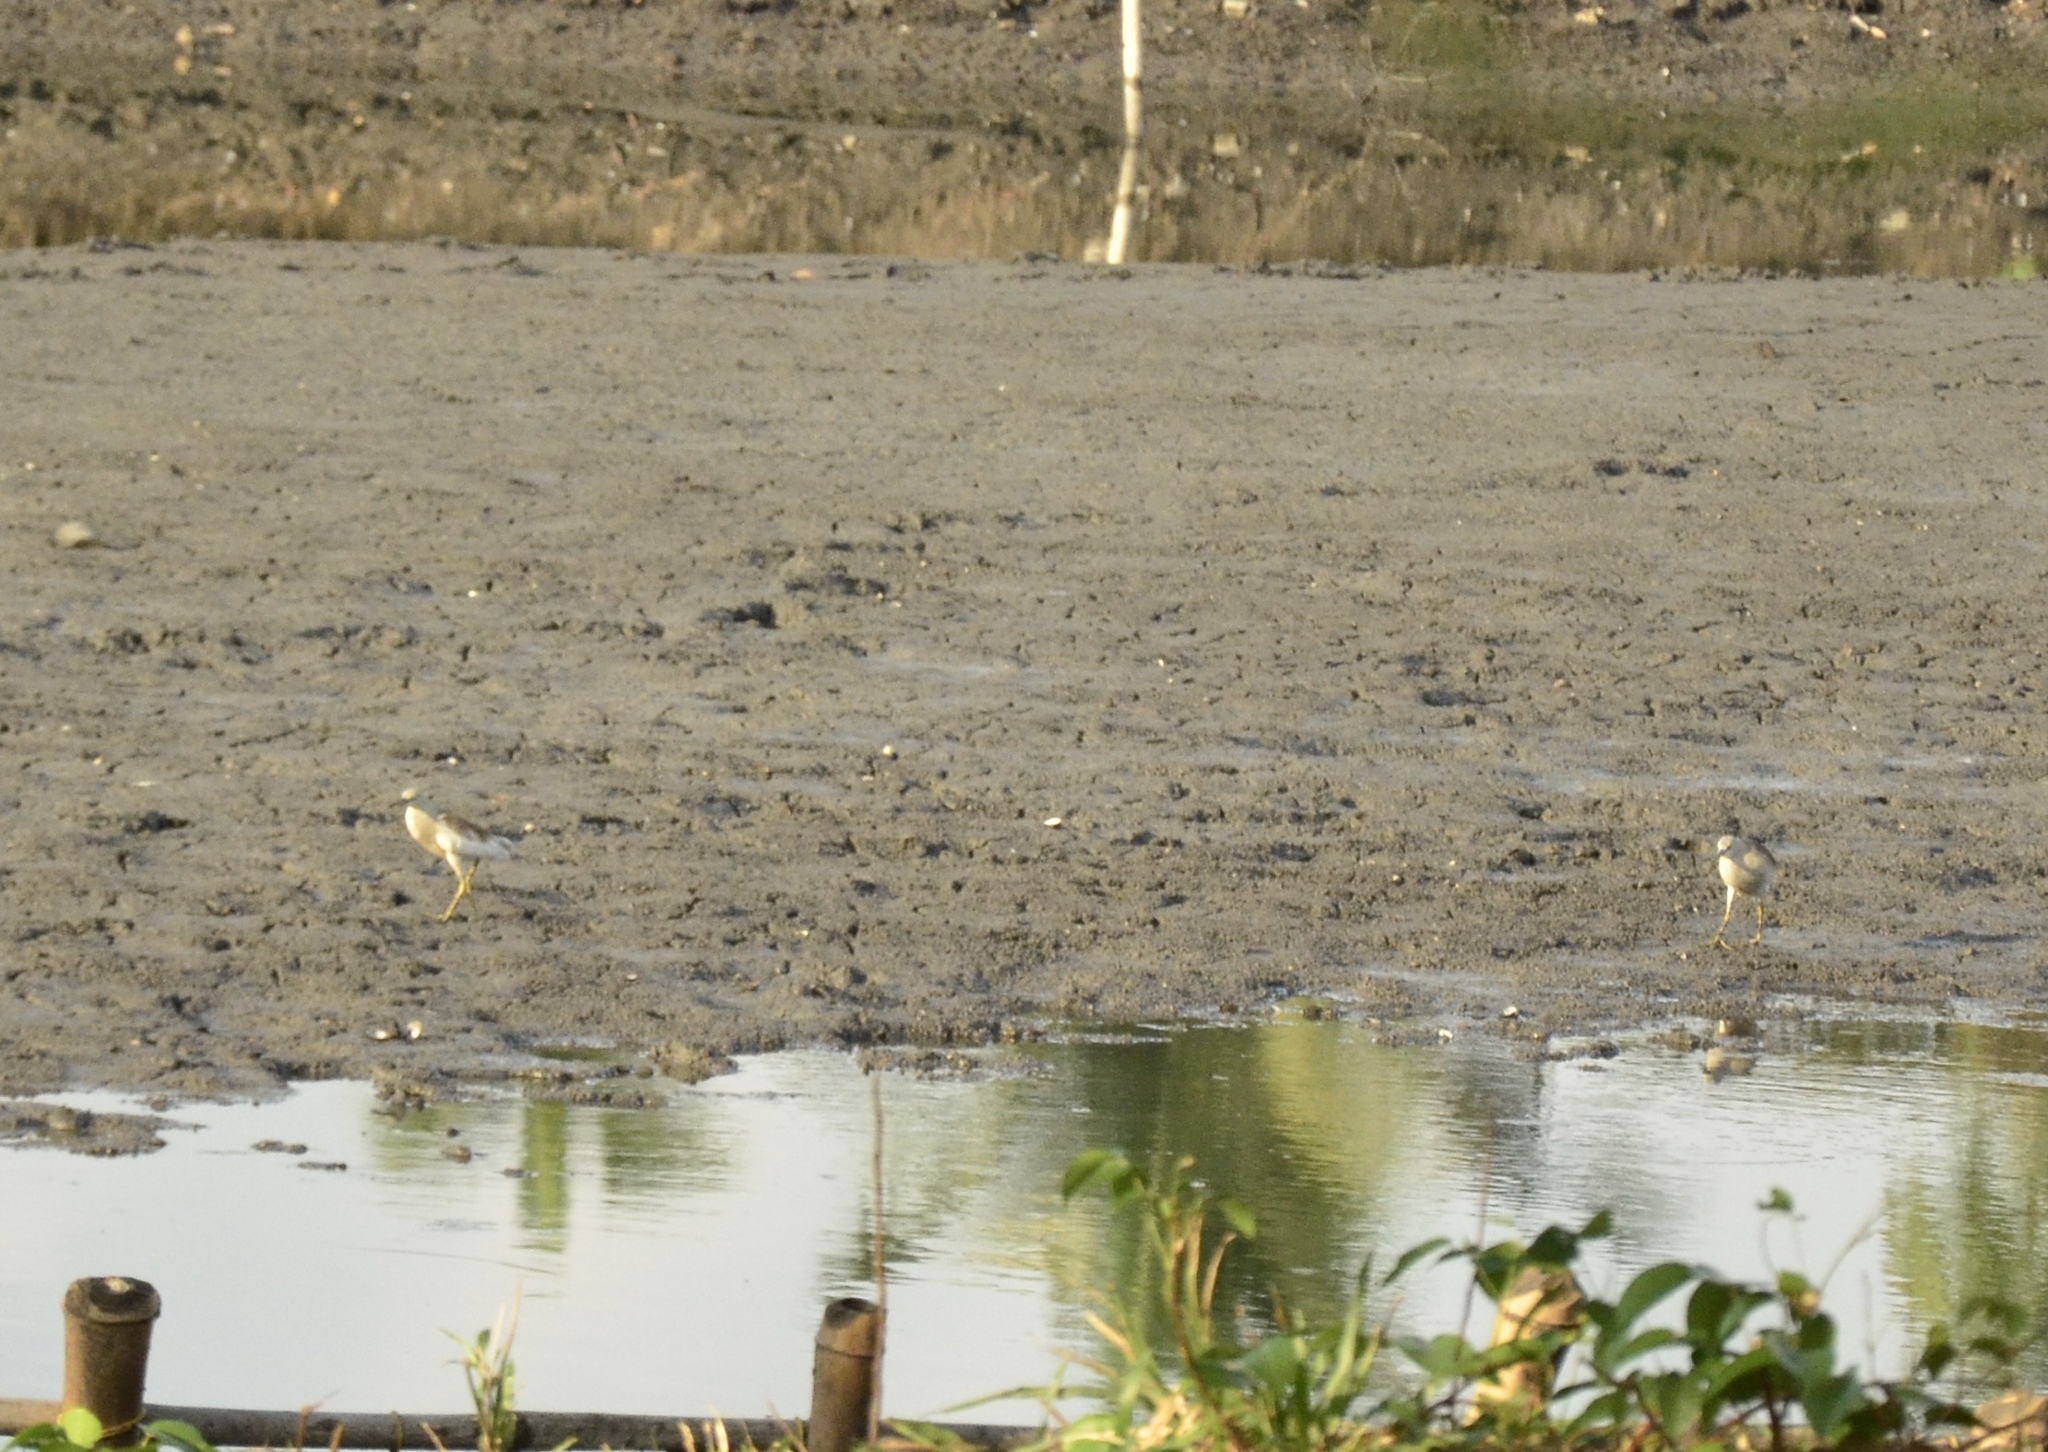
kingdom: Animalia
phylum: Chordata
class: Aves
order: Pelecaniformes
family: Ardeidae
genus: Ardeola
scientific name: Ardeola grayii
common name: Indian pond heron
